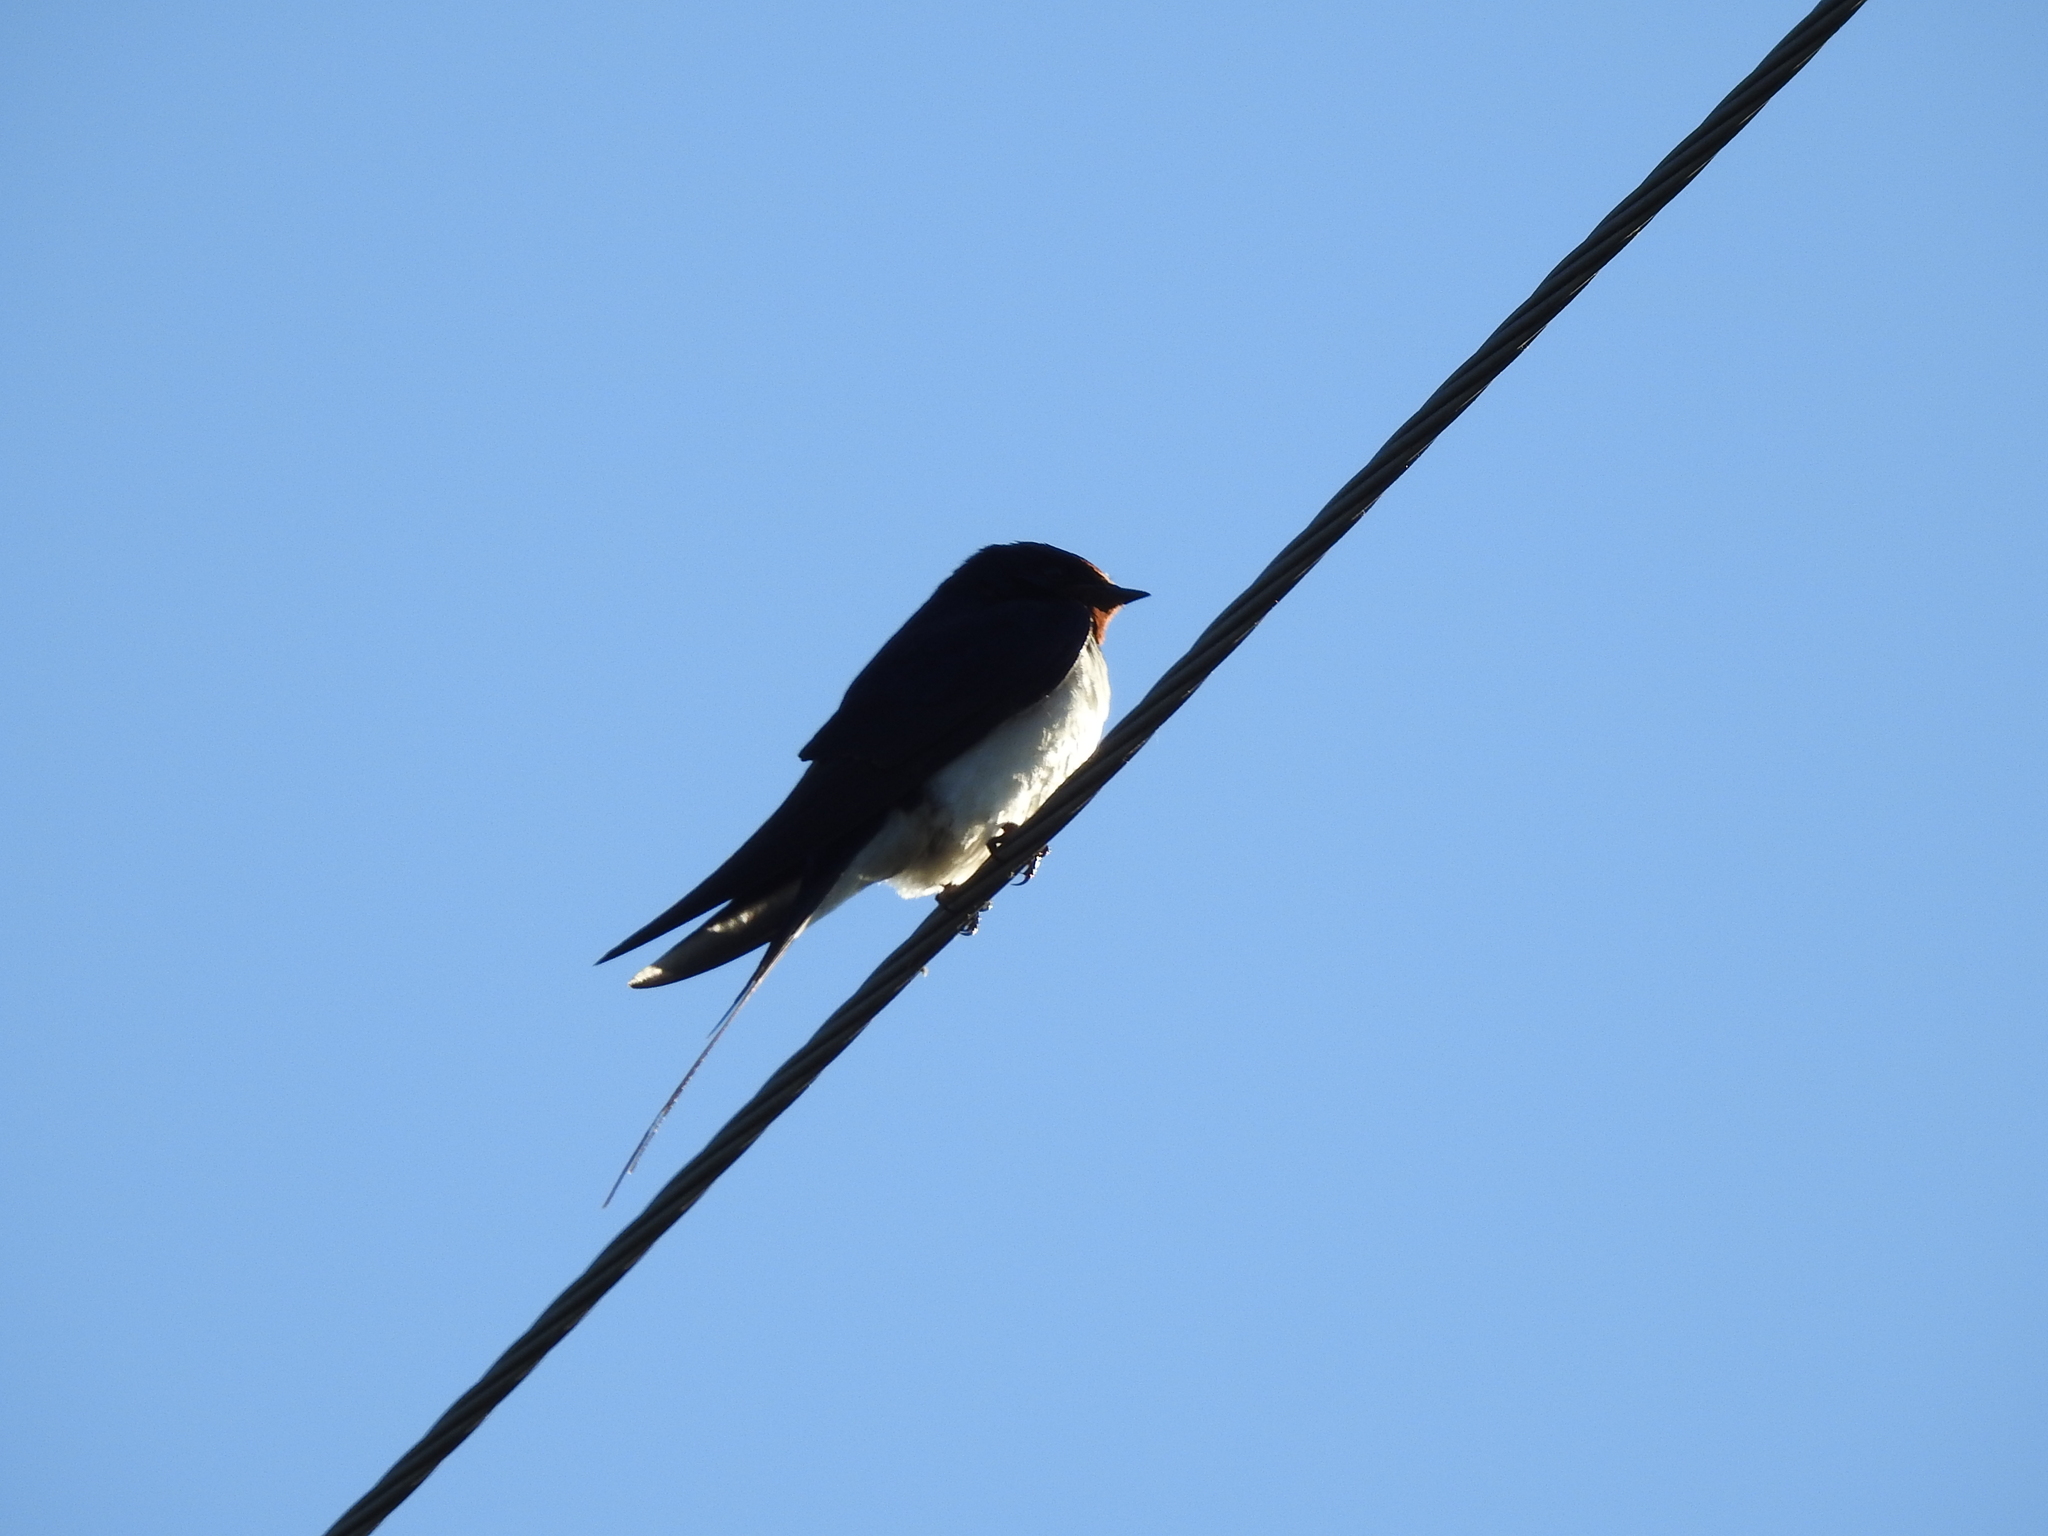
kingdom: Animalia
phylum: Chordata
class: Aves
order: Passeriformes
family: Hirundinidae
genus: Hirundo
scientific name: Hirundo rustica
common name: Barn swallow
